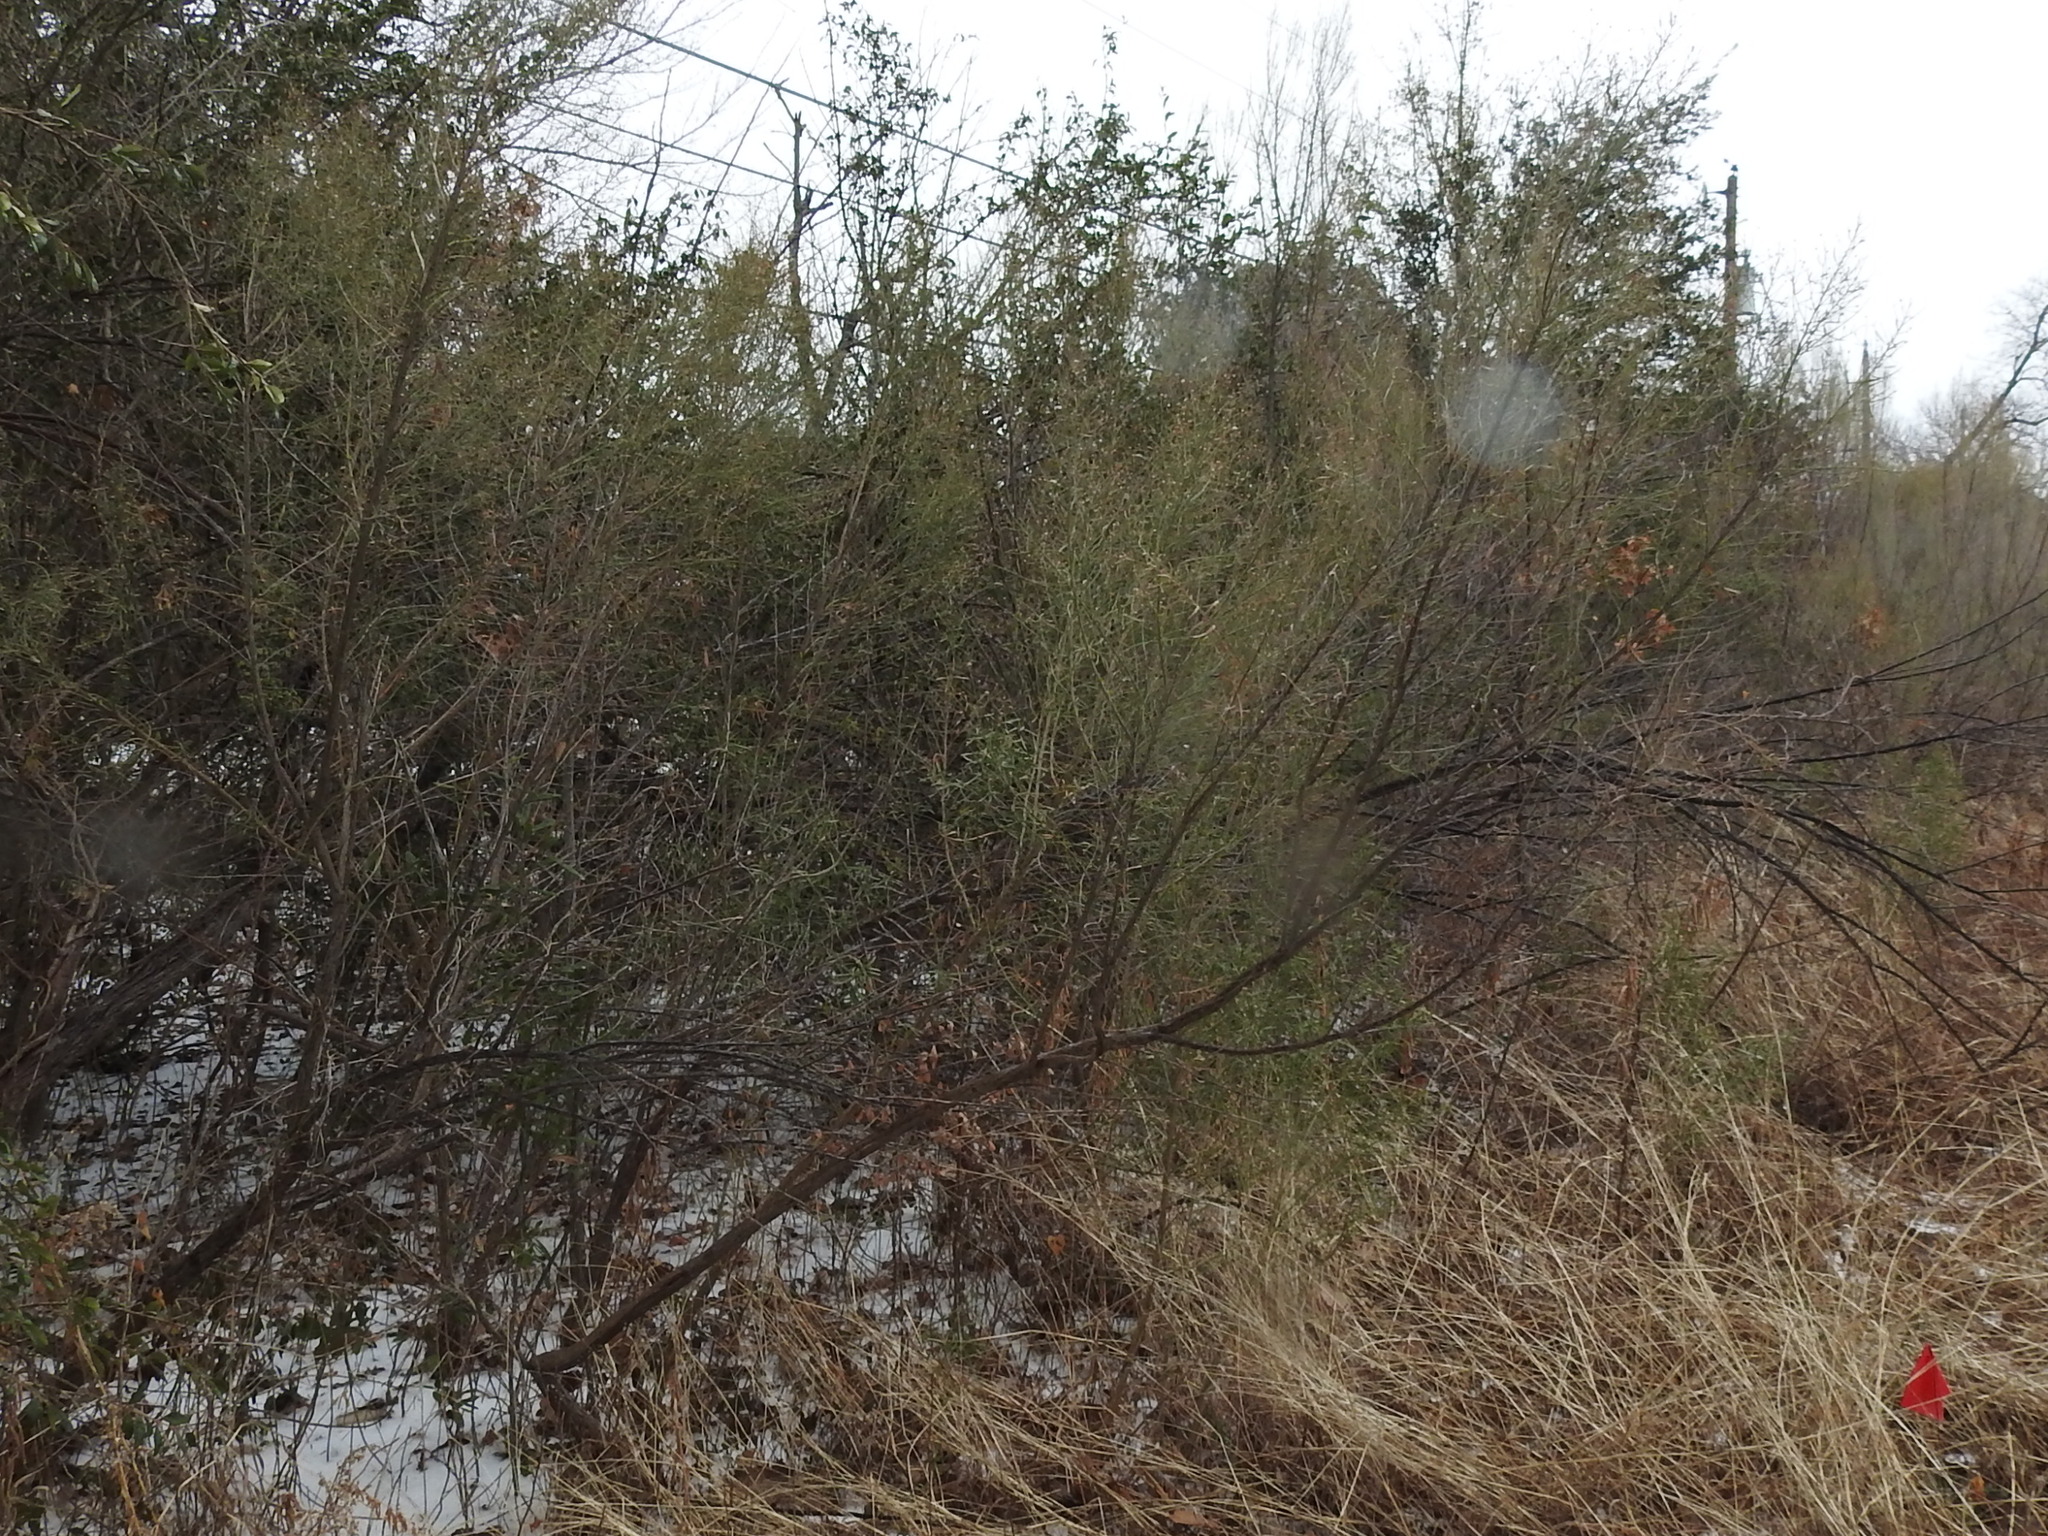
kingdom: Plantae
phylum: Tracheophyta
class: Magnoliopsida
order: Asterales
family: Asteraceae
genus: Baccharis
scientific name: Baccharis neglecta
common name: Roosevelt-weed
